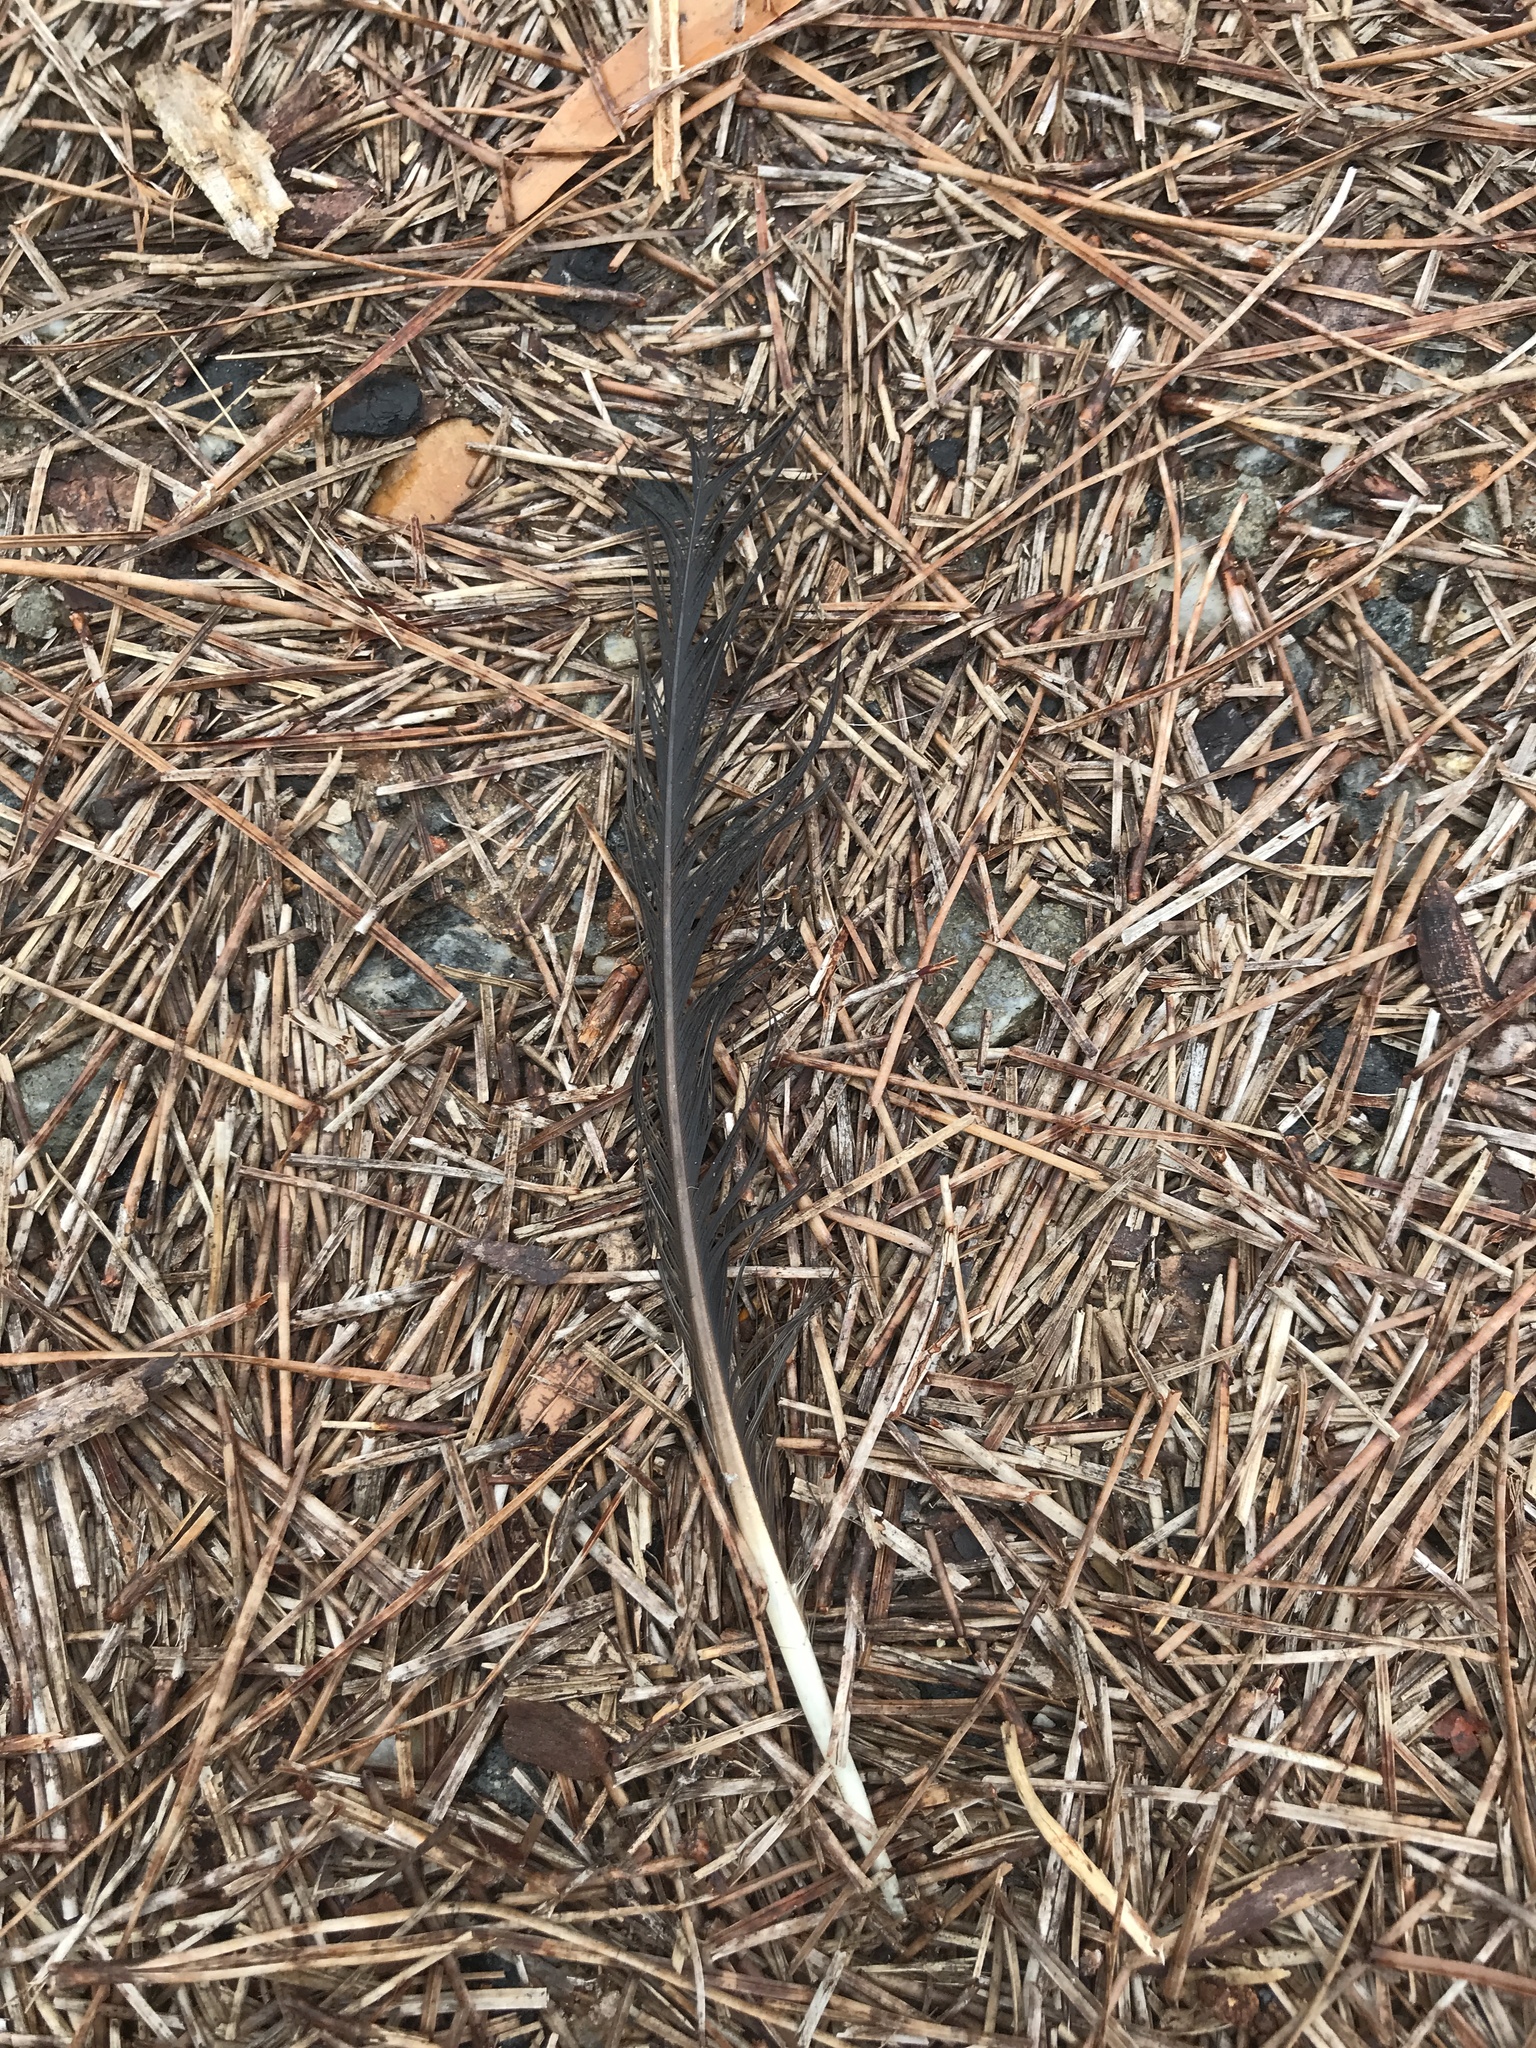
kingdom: Animalia
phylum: Chordata
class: Aves
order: Passeriformes
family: Corvidae
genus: Corvus
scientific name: Corvus
